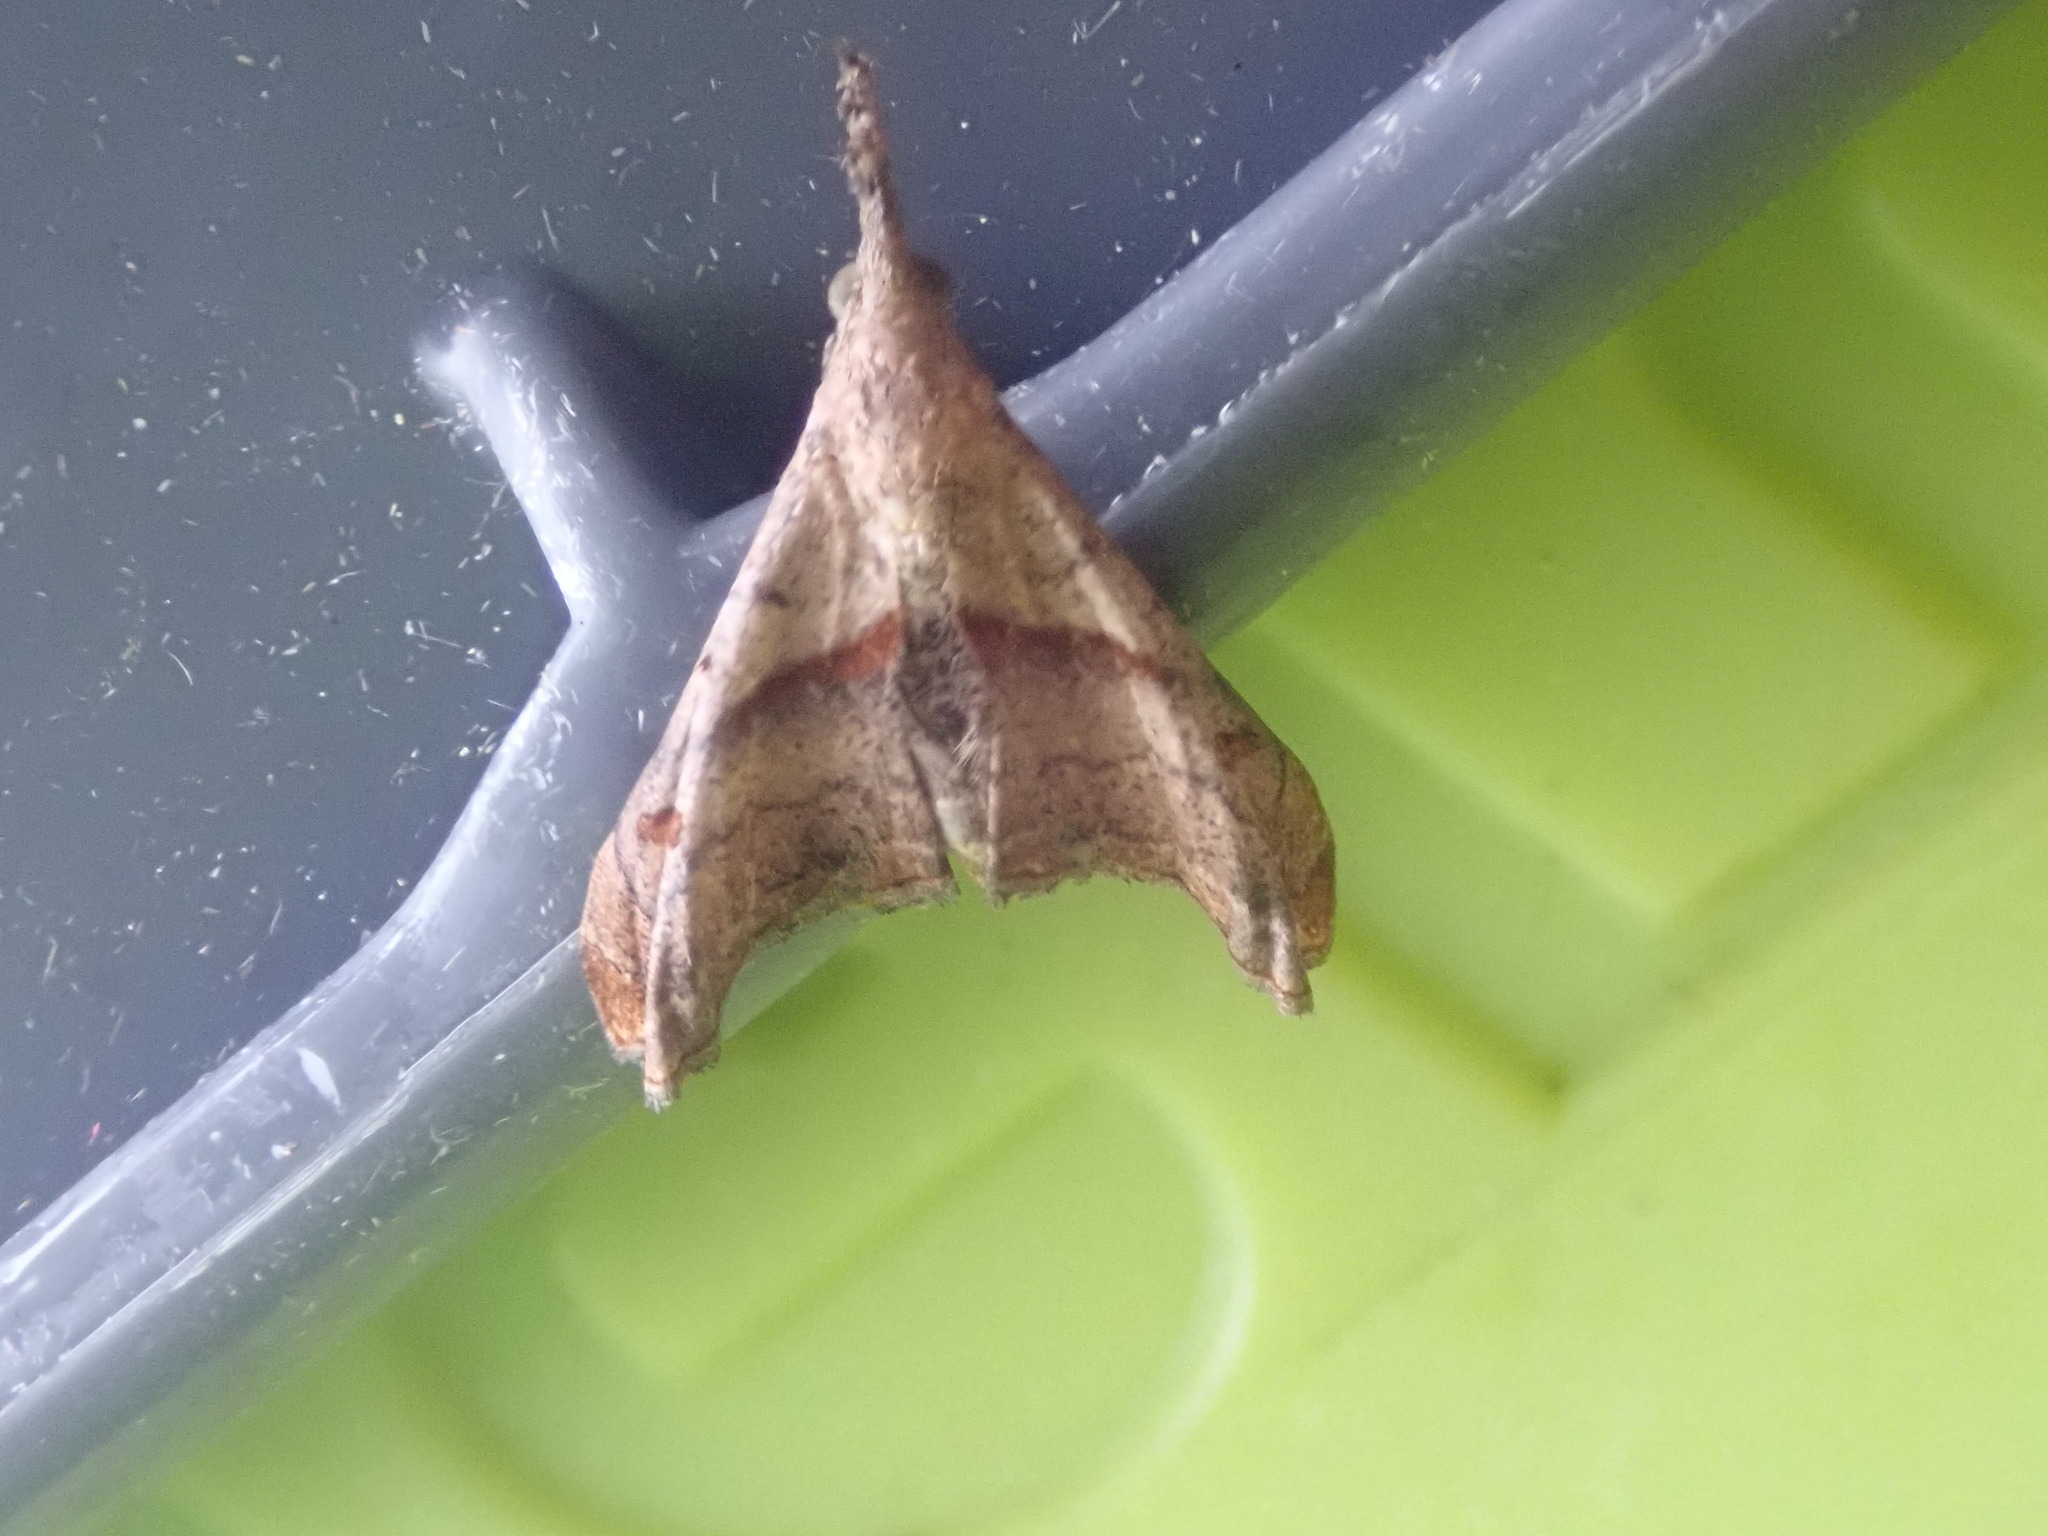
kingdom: Animalia
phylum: Arthropoda
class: Insecta
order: Lepidoptera
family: Erebidae
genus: Palthis
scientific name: Palthis angulalis
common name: Dark-spotted palthis moth
